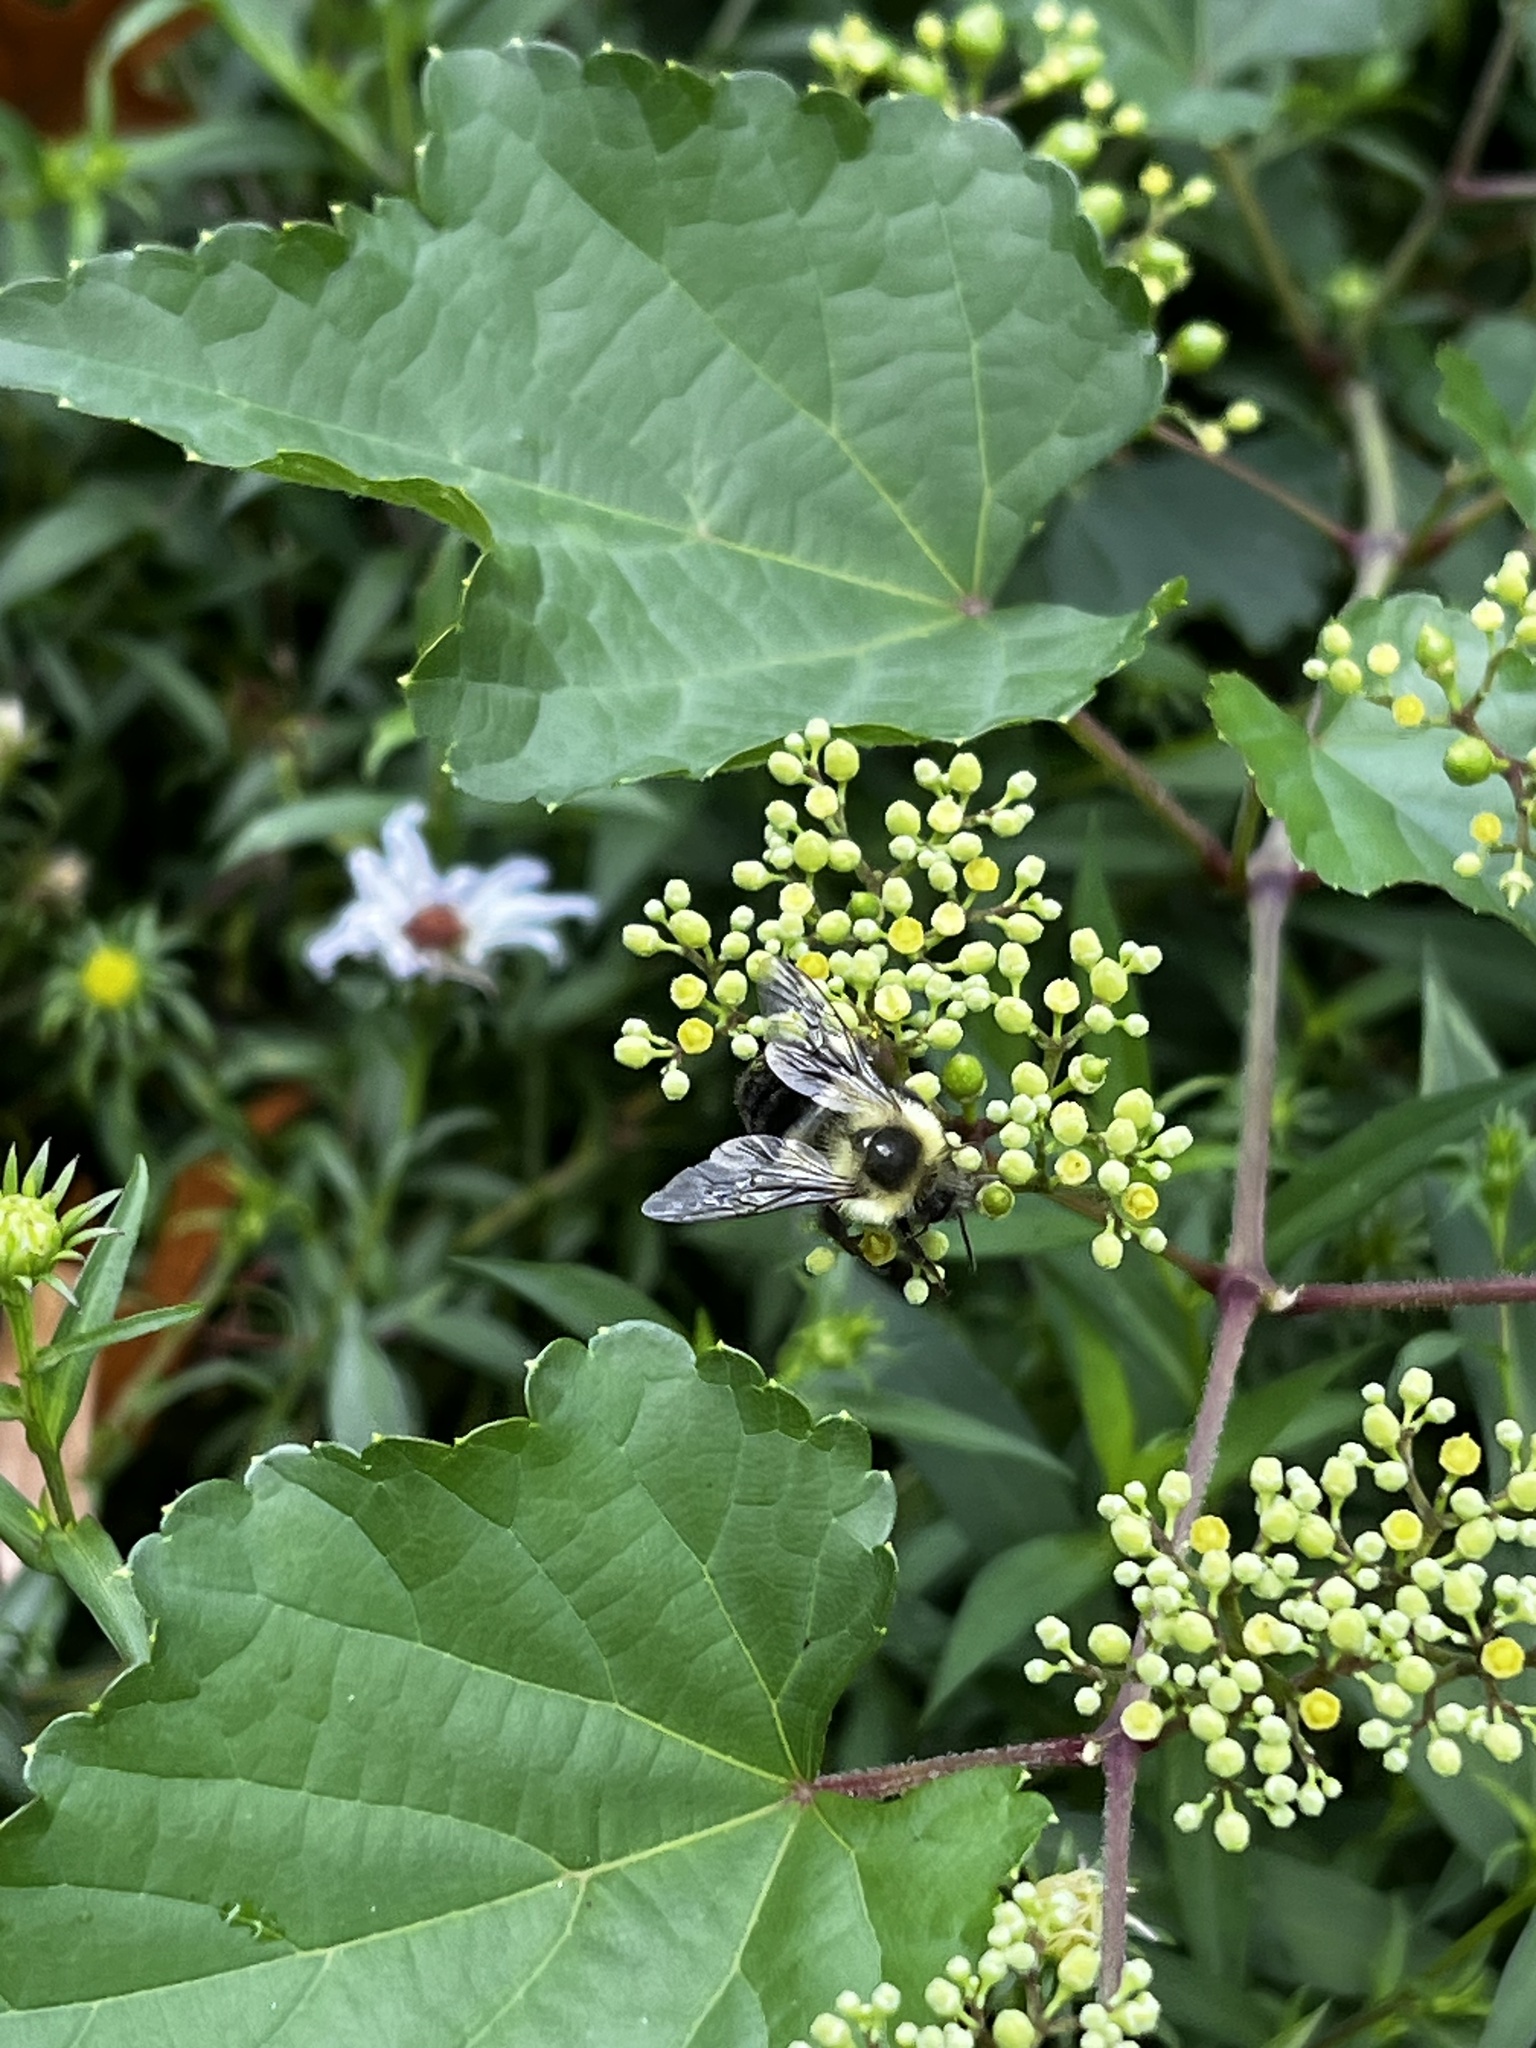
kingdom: Animalia
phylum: Arthropoda
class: Insecta
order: Hymenoptera
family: Apidae
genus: Bombus
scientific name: Bombus impatiens
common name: Common eastern bumble bee
